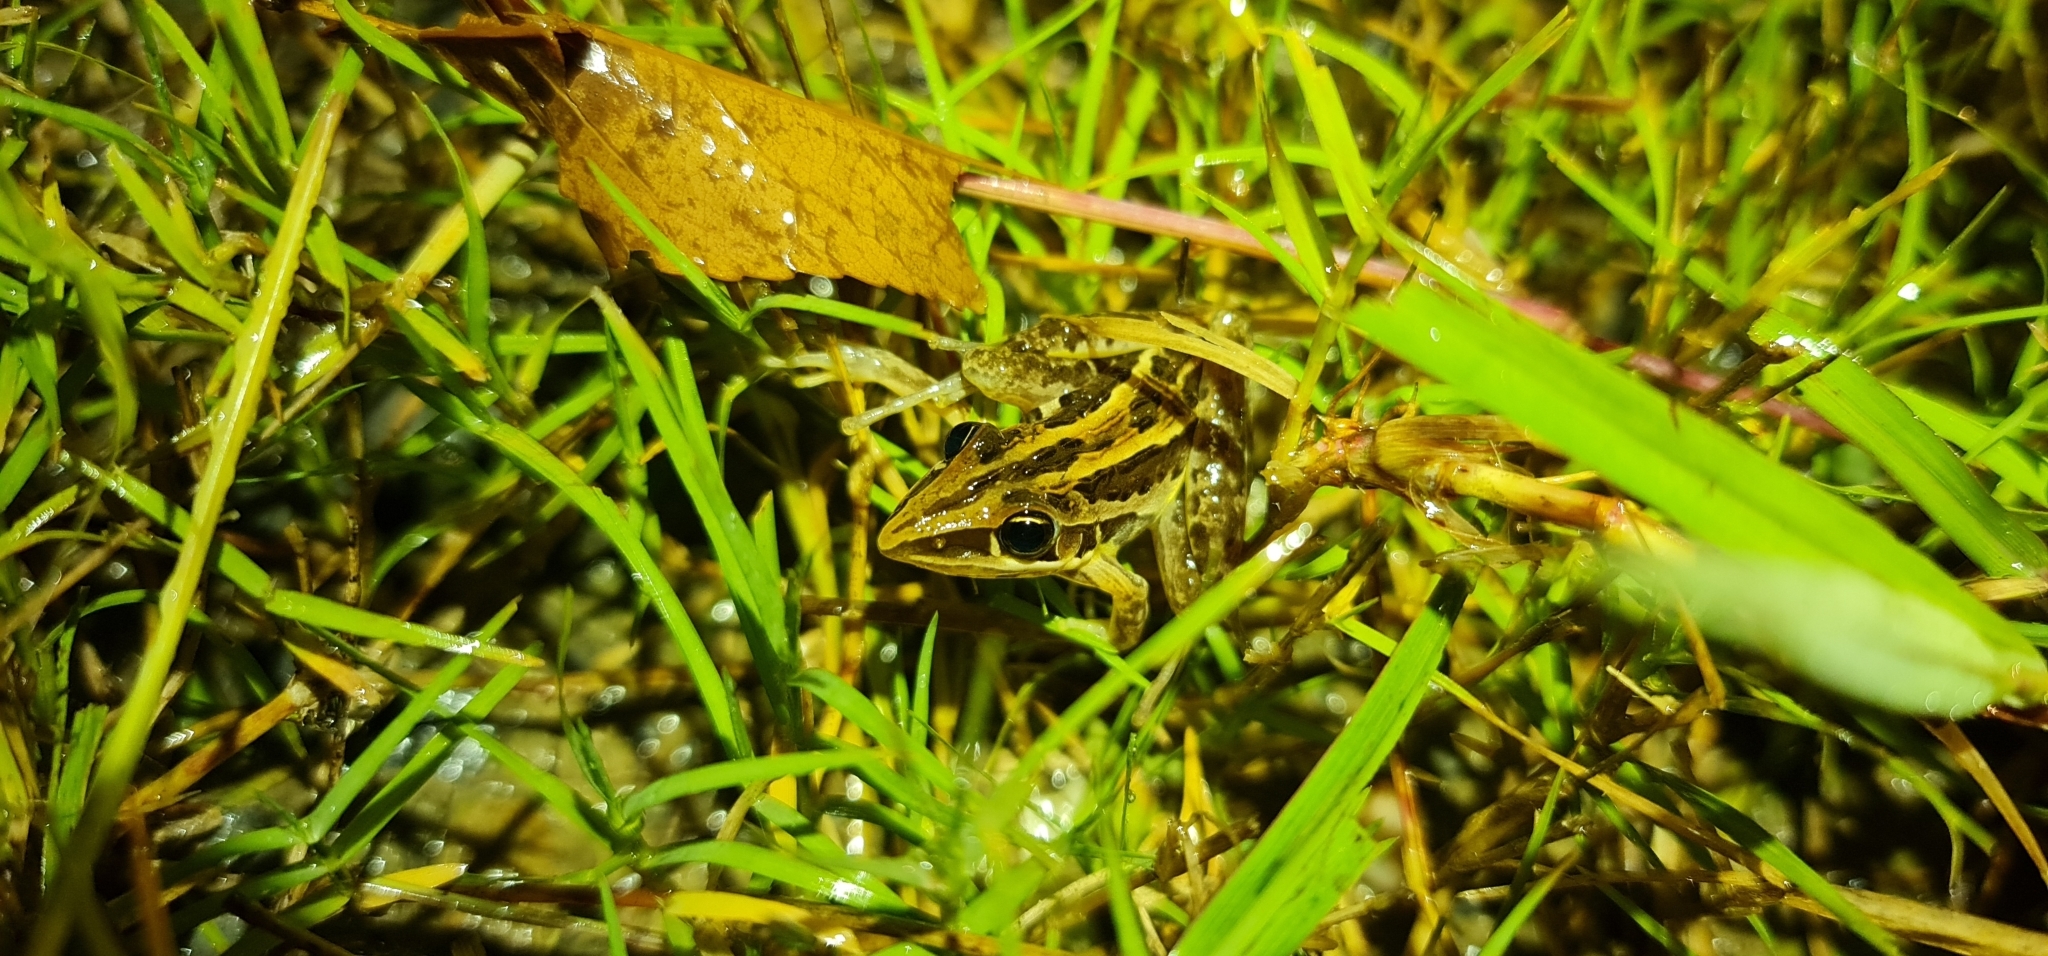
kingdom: Animalia
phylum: Chordata
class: Amphibia
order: Anura
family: Pelodryadidae
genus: Litoria
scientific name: Litoria nasuta
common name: Rocket frog
